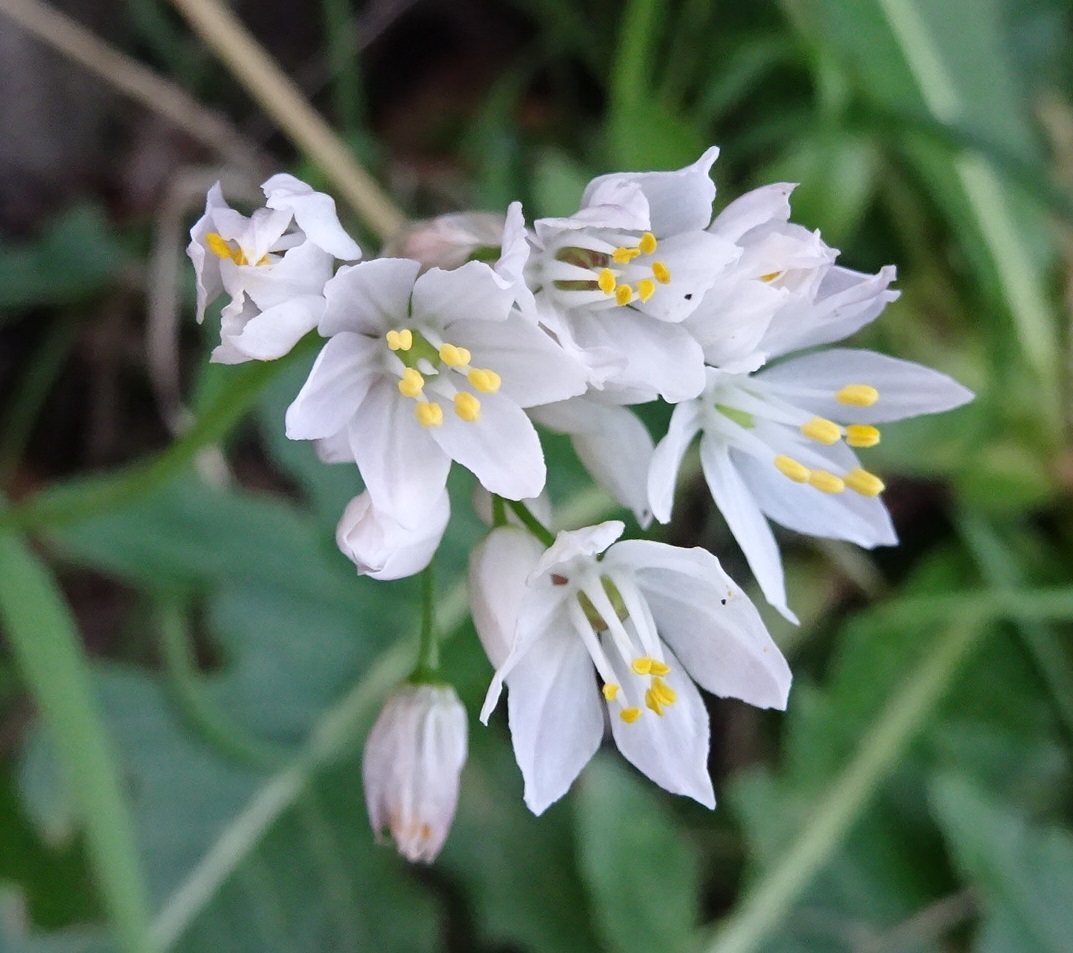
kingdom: Plantae
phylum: Tracheophyta
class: Liliopsida
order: Asparagales
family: Amaryllidaceae
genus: Allium
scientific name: Allium canariense
